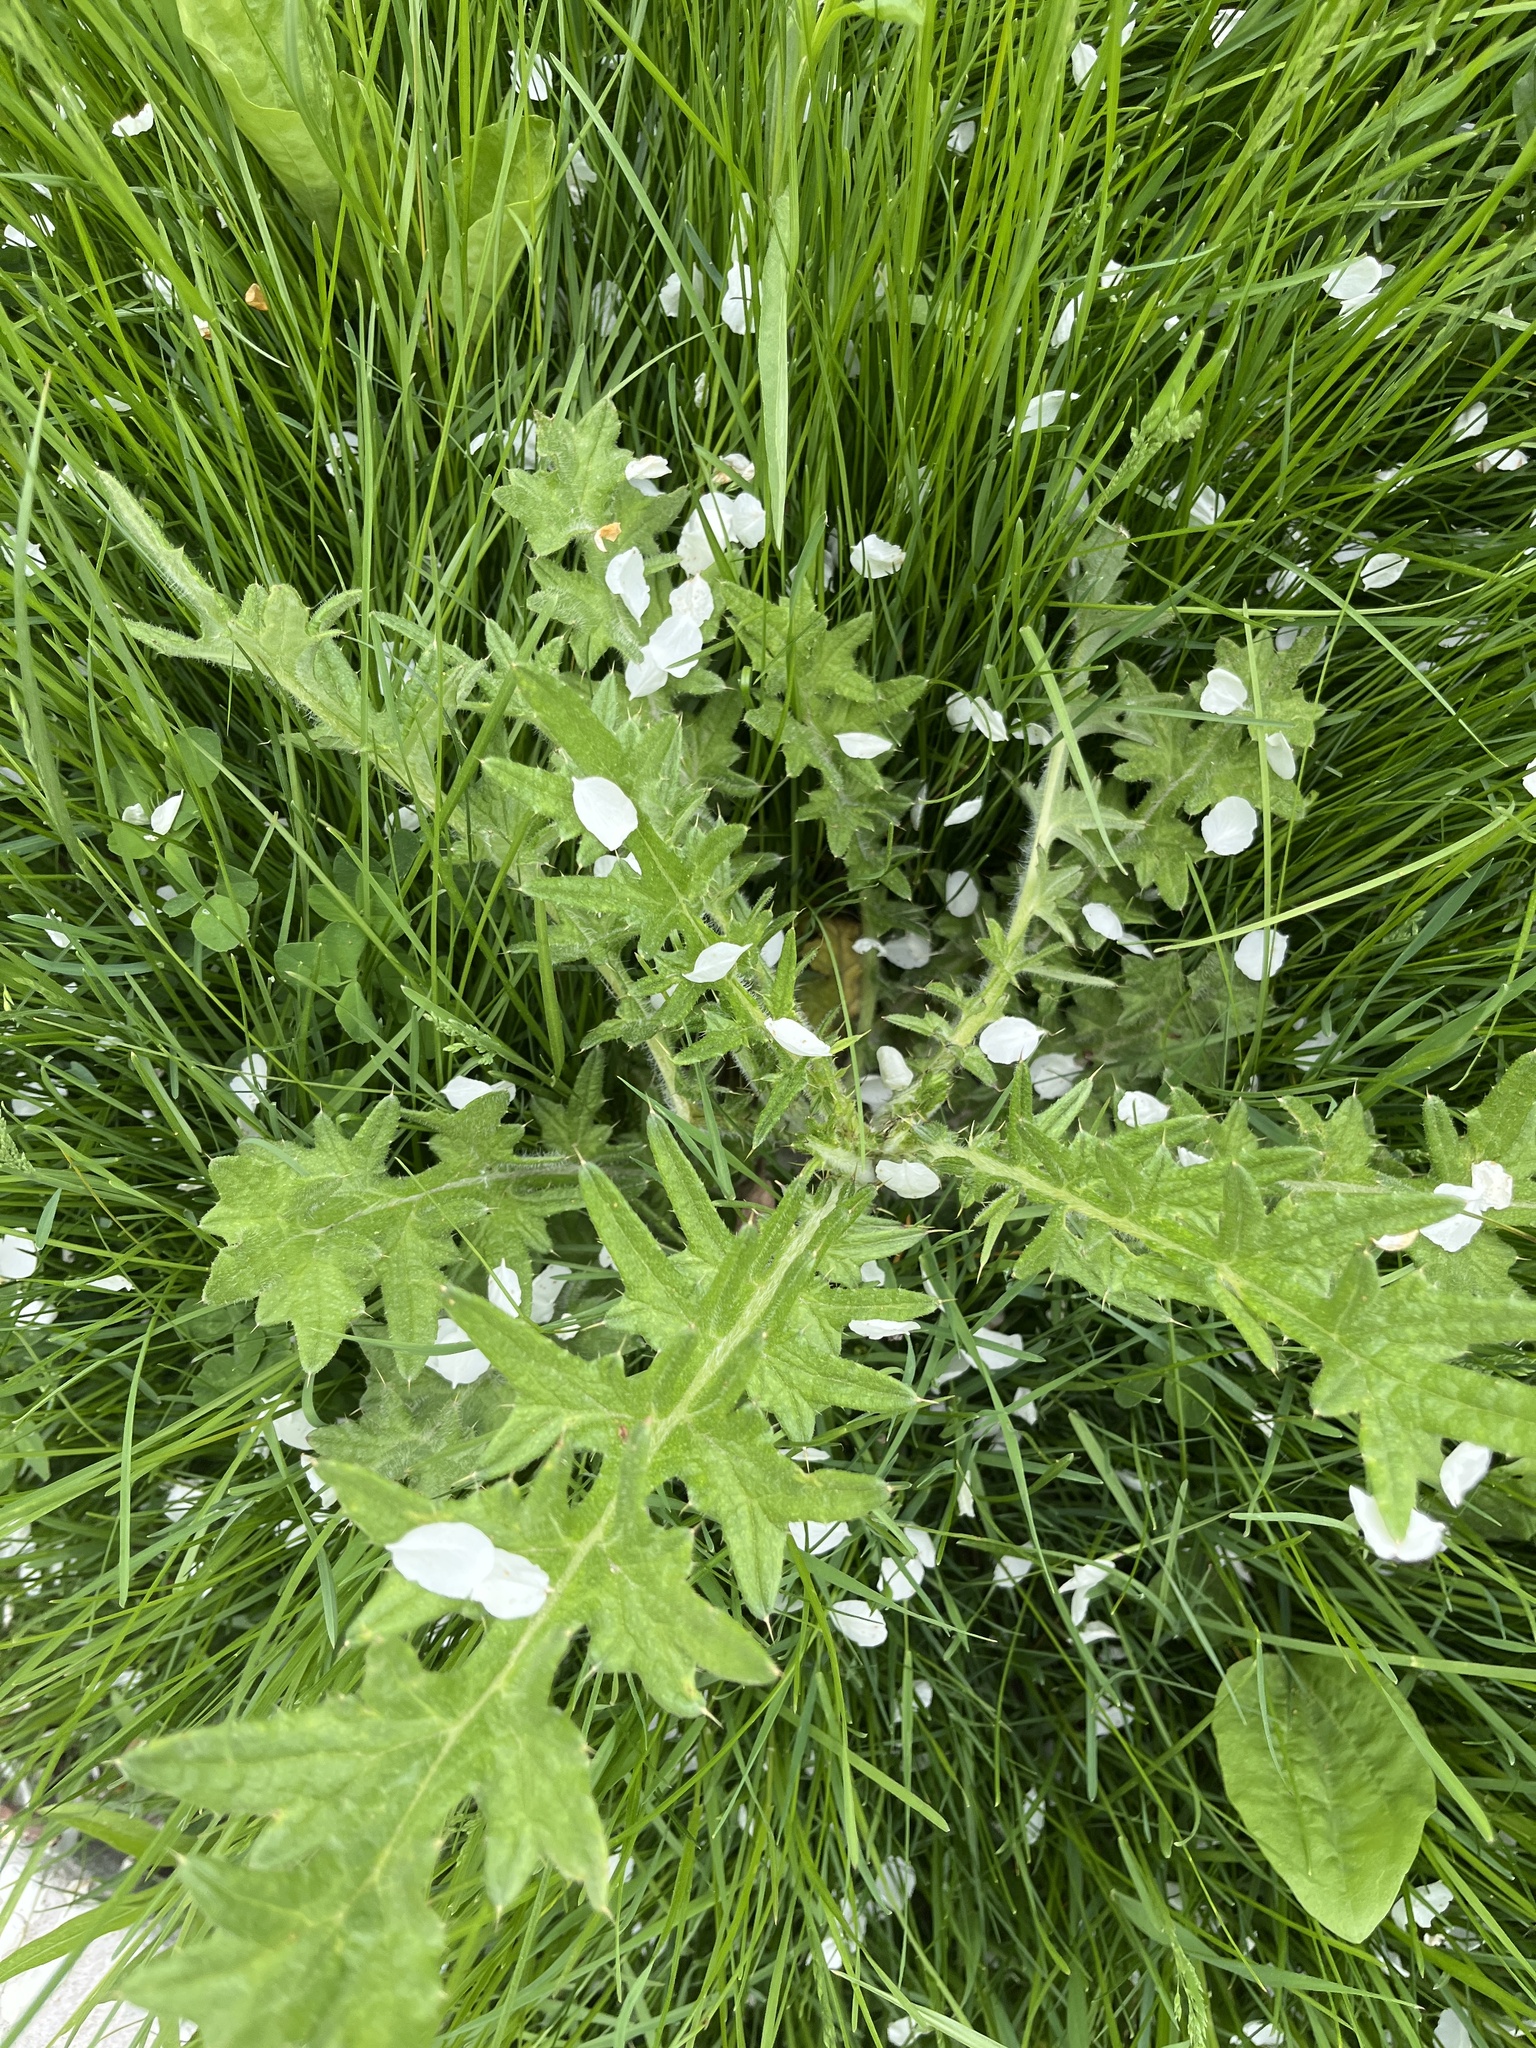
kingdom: Plantae
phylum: Tracheophyta
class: Magnoliopsida
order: Asterales
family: Asteraceae
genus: Cirsium
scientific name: Cirsium vulgare
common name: Bull thistle
